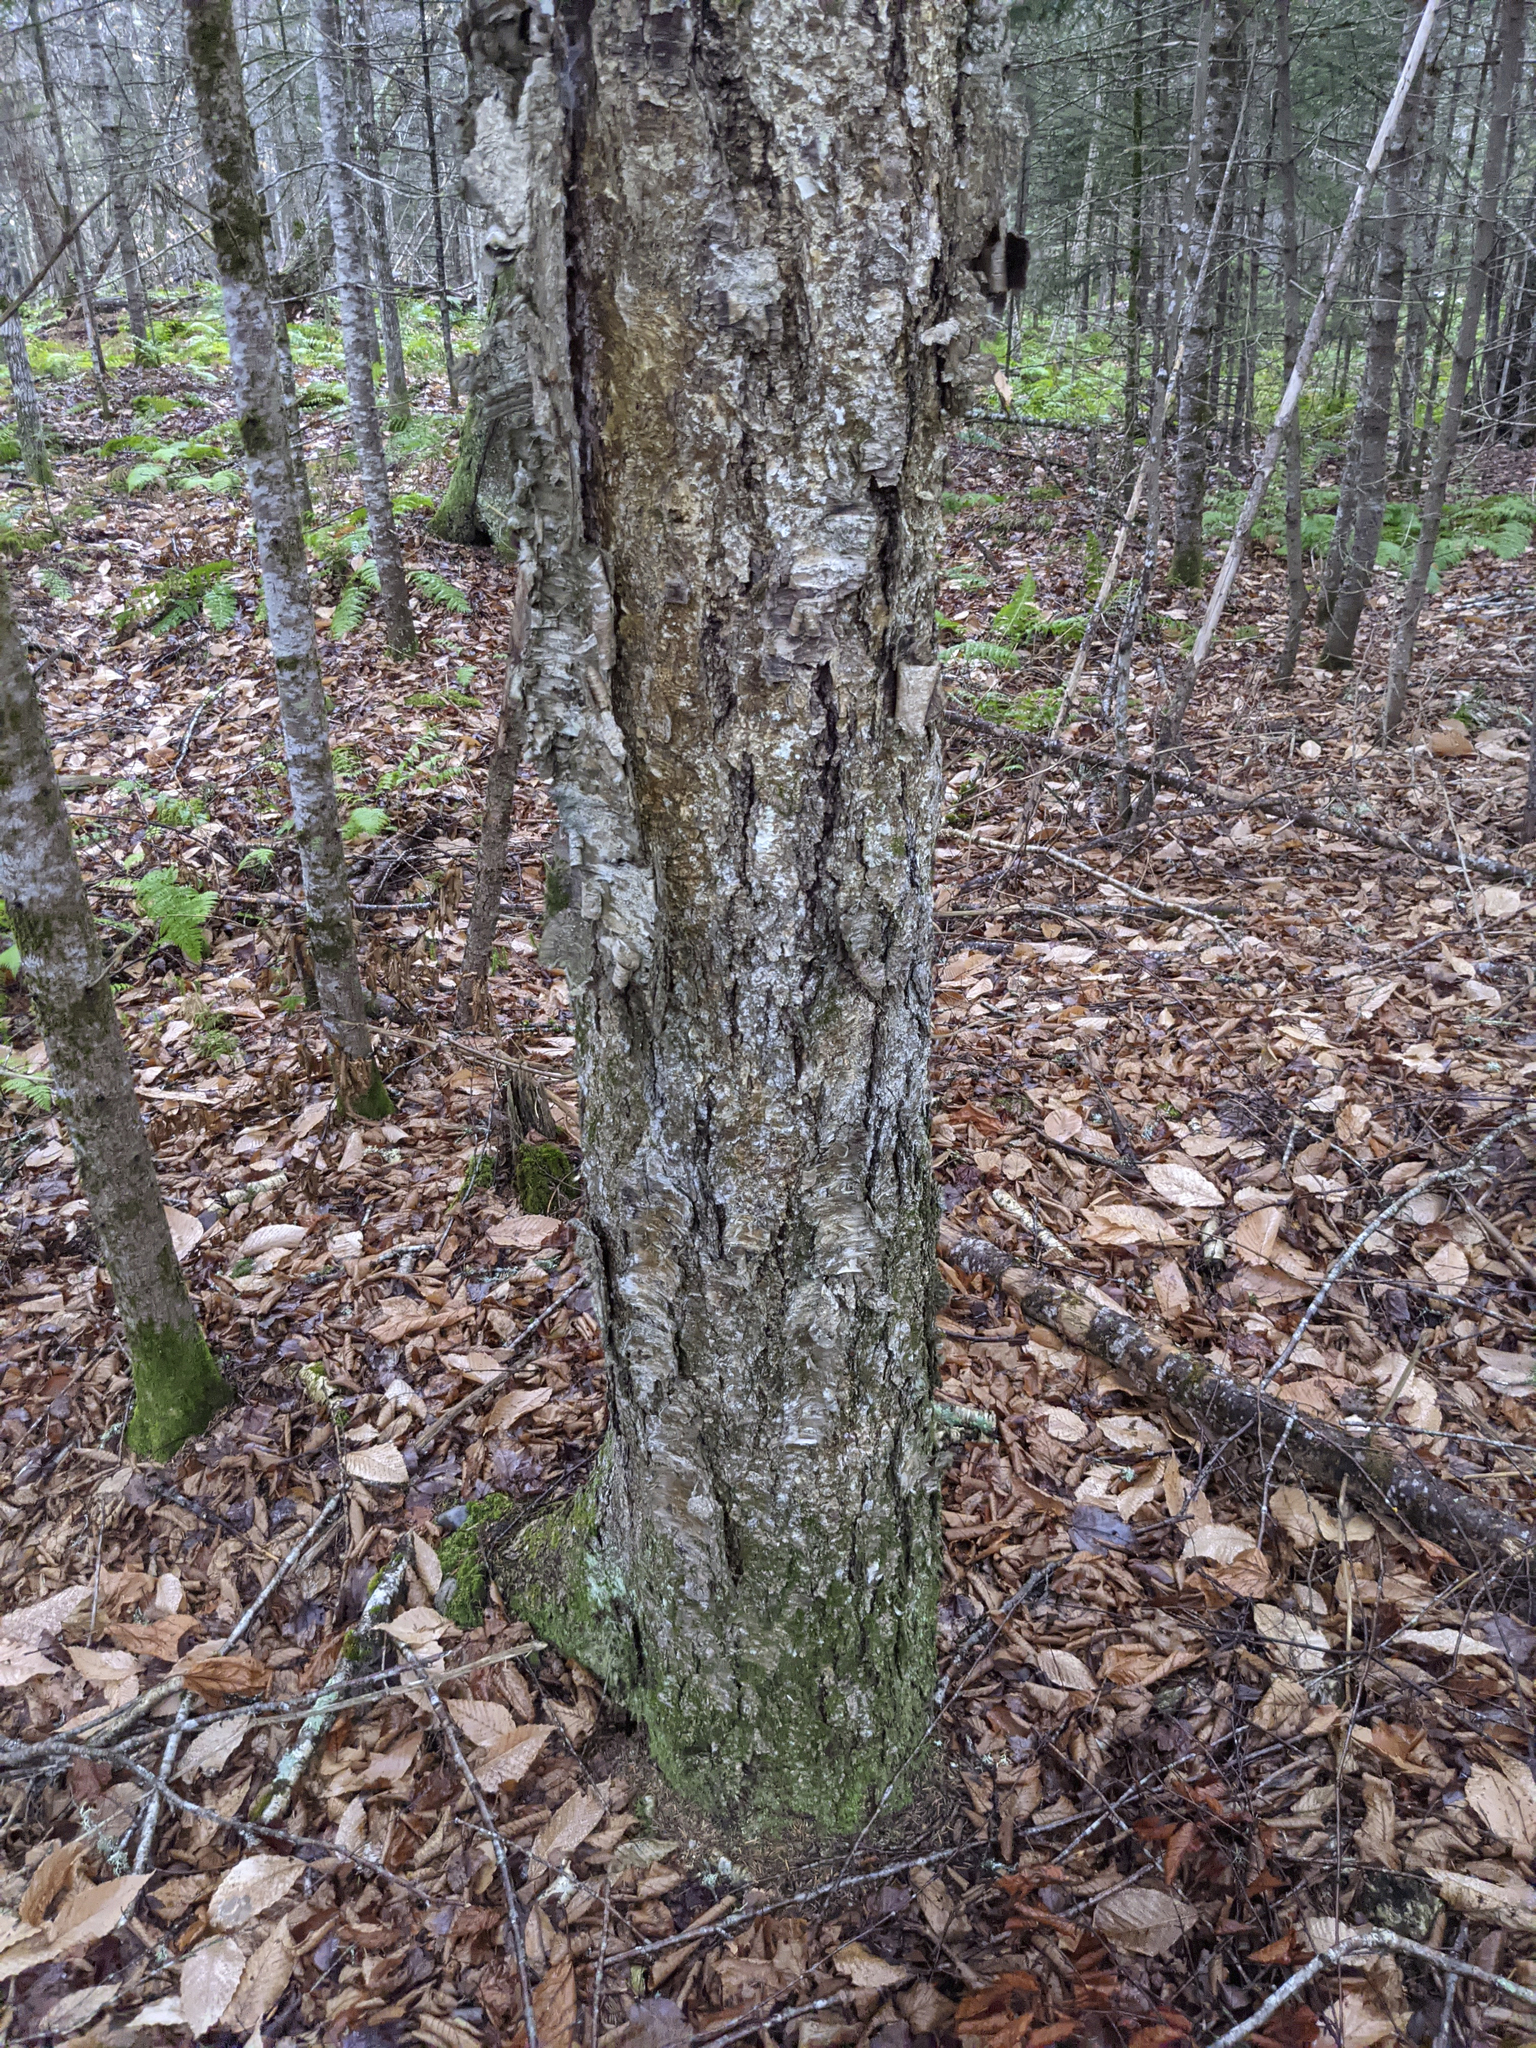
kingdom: Plantae
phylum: Tracheophyta
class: Magnoliopsida
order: Fagales
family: Betulaceae
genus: Betula
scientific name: Betula alleghaniensis
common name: Yellow birch
